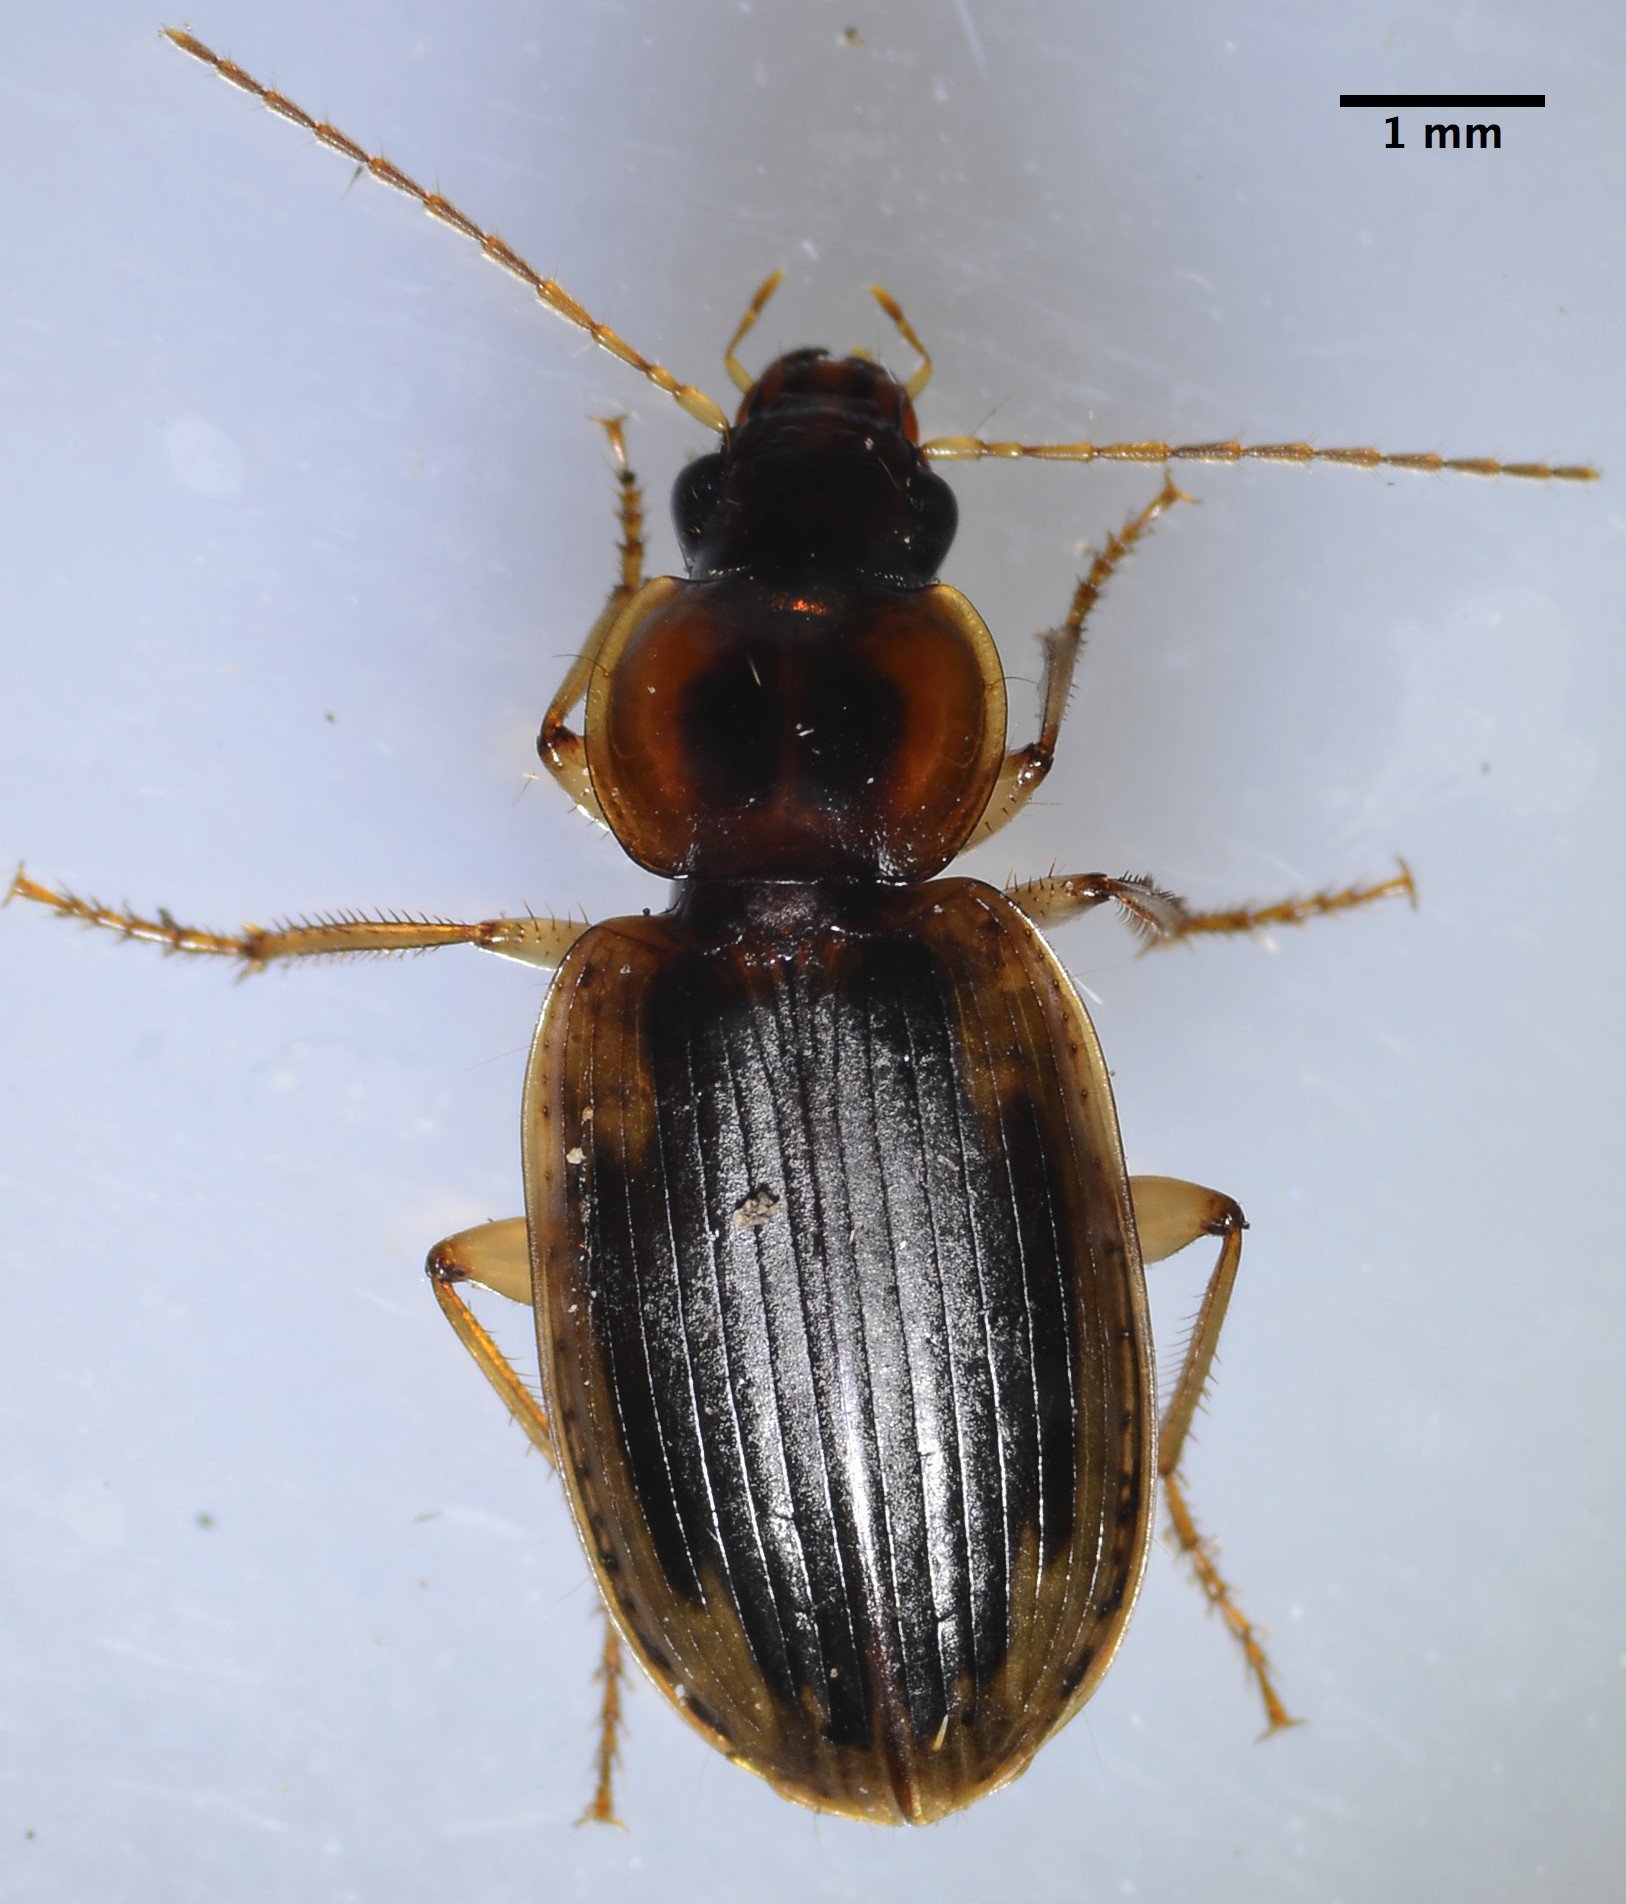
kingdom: Animalia
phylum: Arthropoda
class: Insecta
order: Coleoptera
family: Carabidae
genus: Tanystoma
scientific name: Tanystoma maculicolle
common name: Tule beetle
